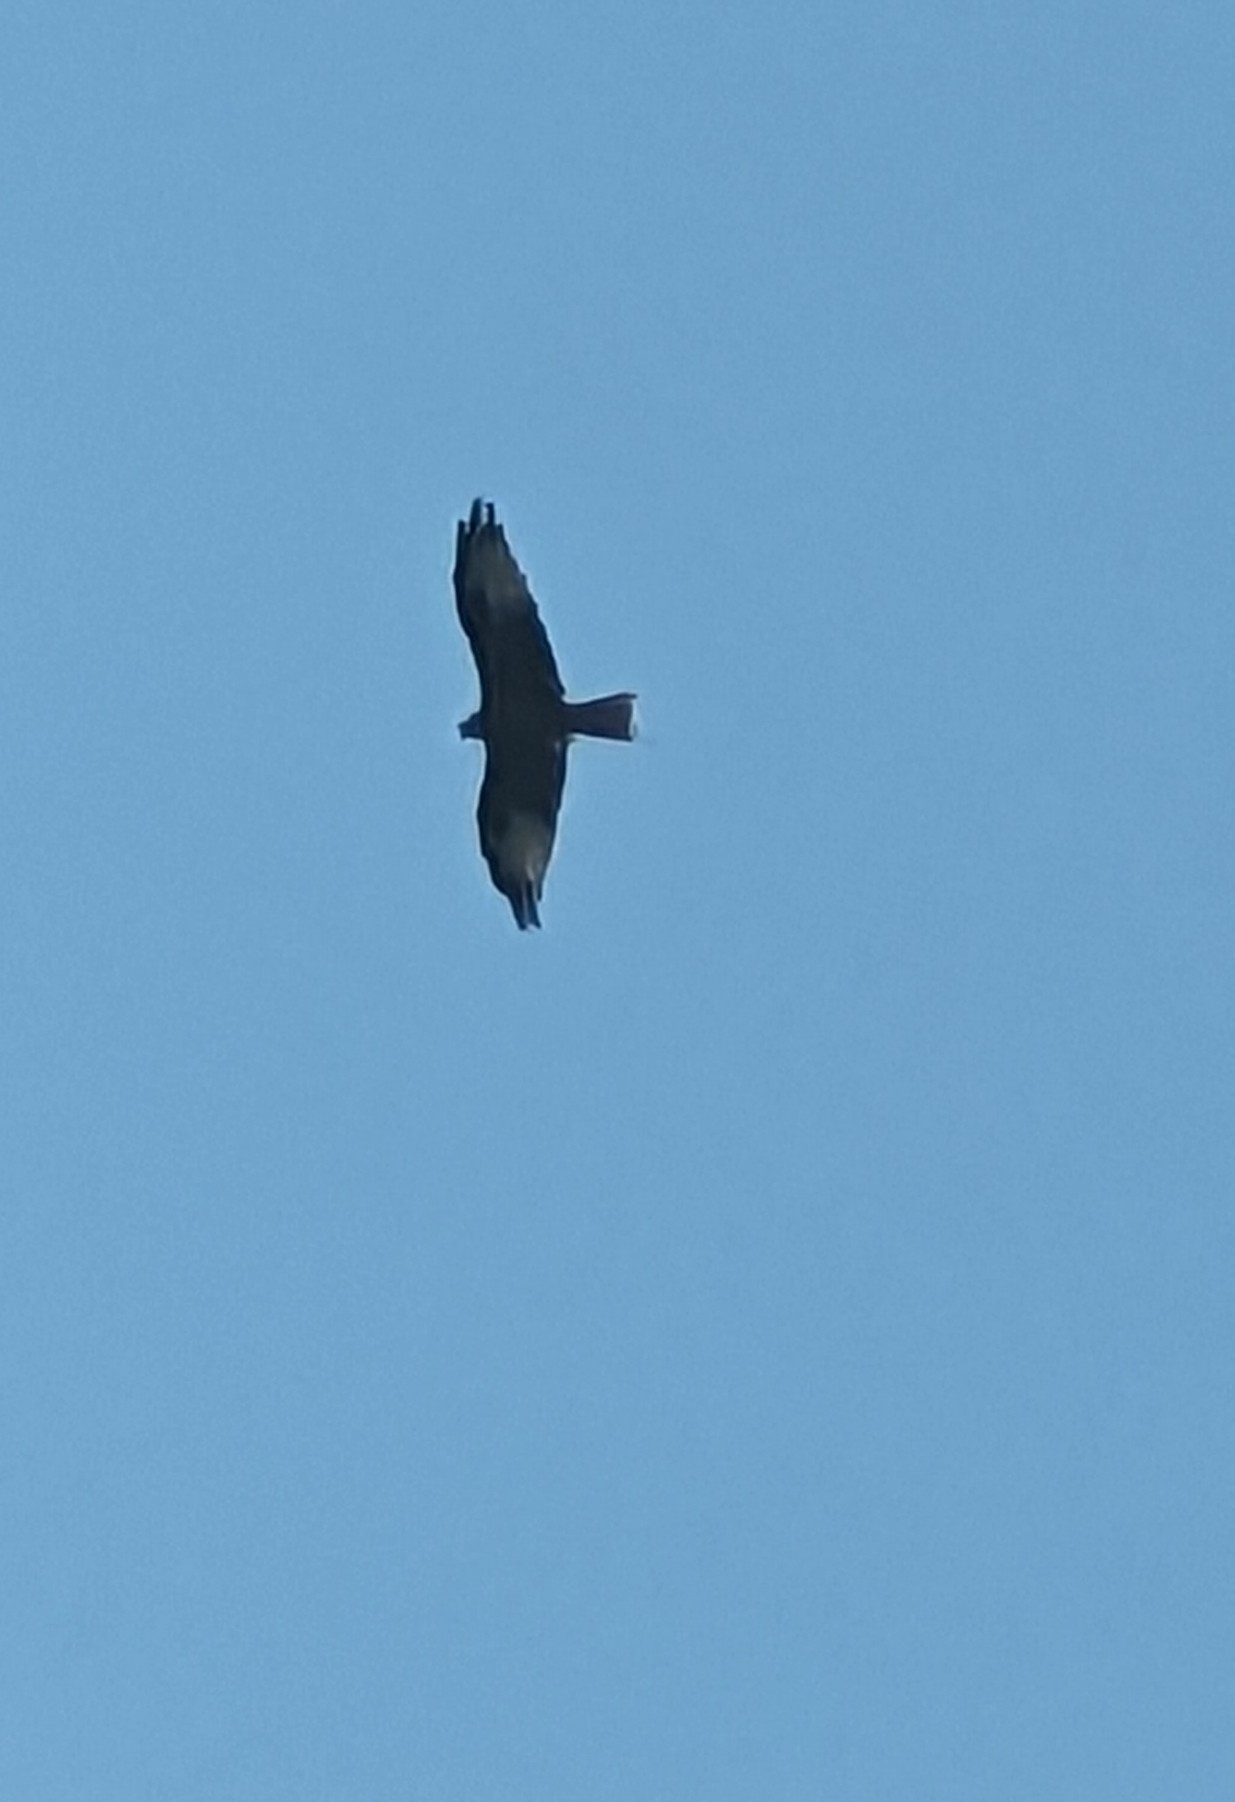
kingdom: Animalia
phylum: Chordata
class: Aves
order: Accipitriformes
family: Accipitridae
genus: Milvus
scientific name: Milvus milvus
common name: Red kite
